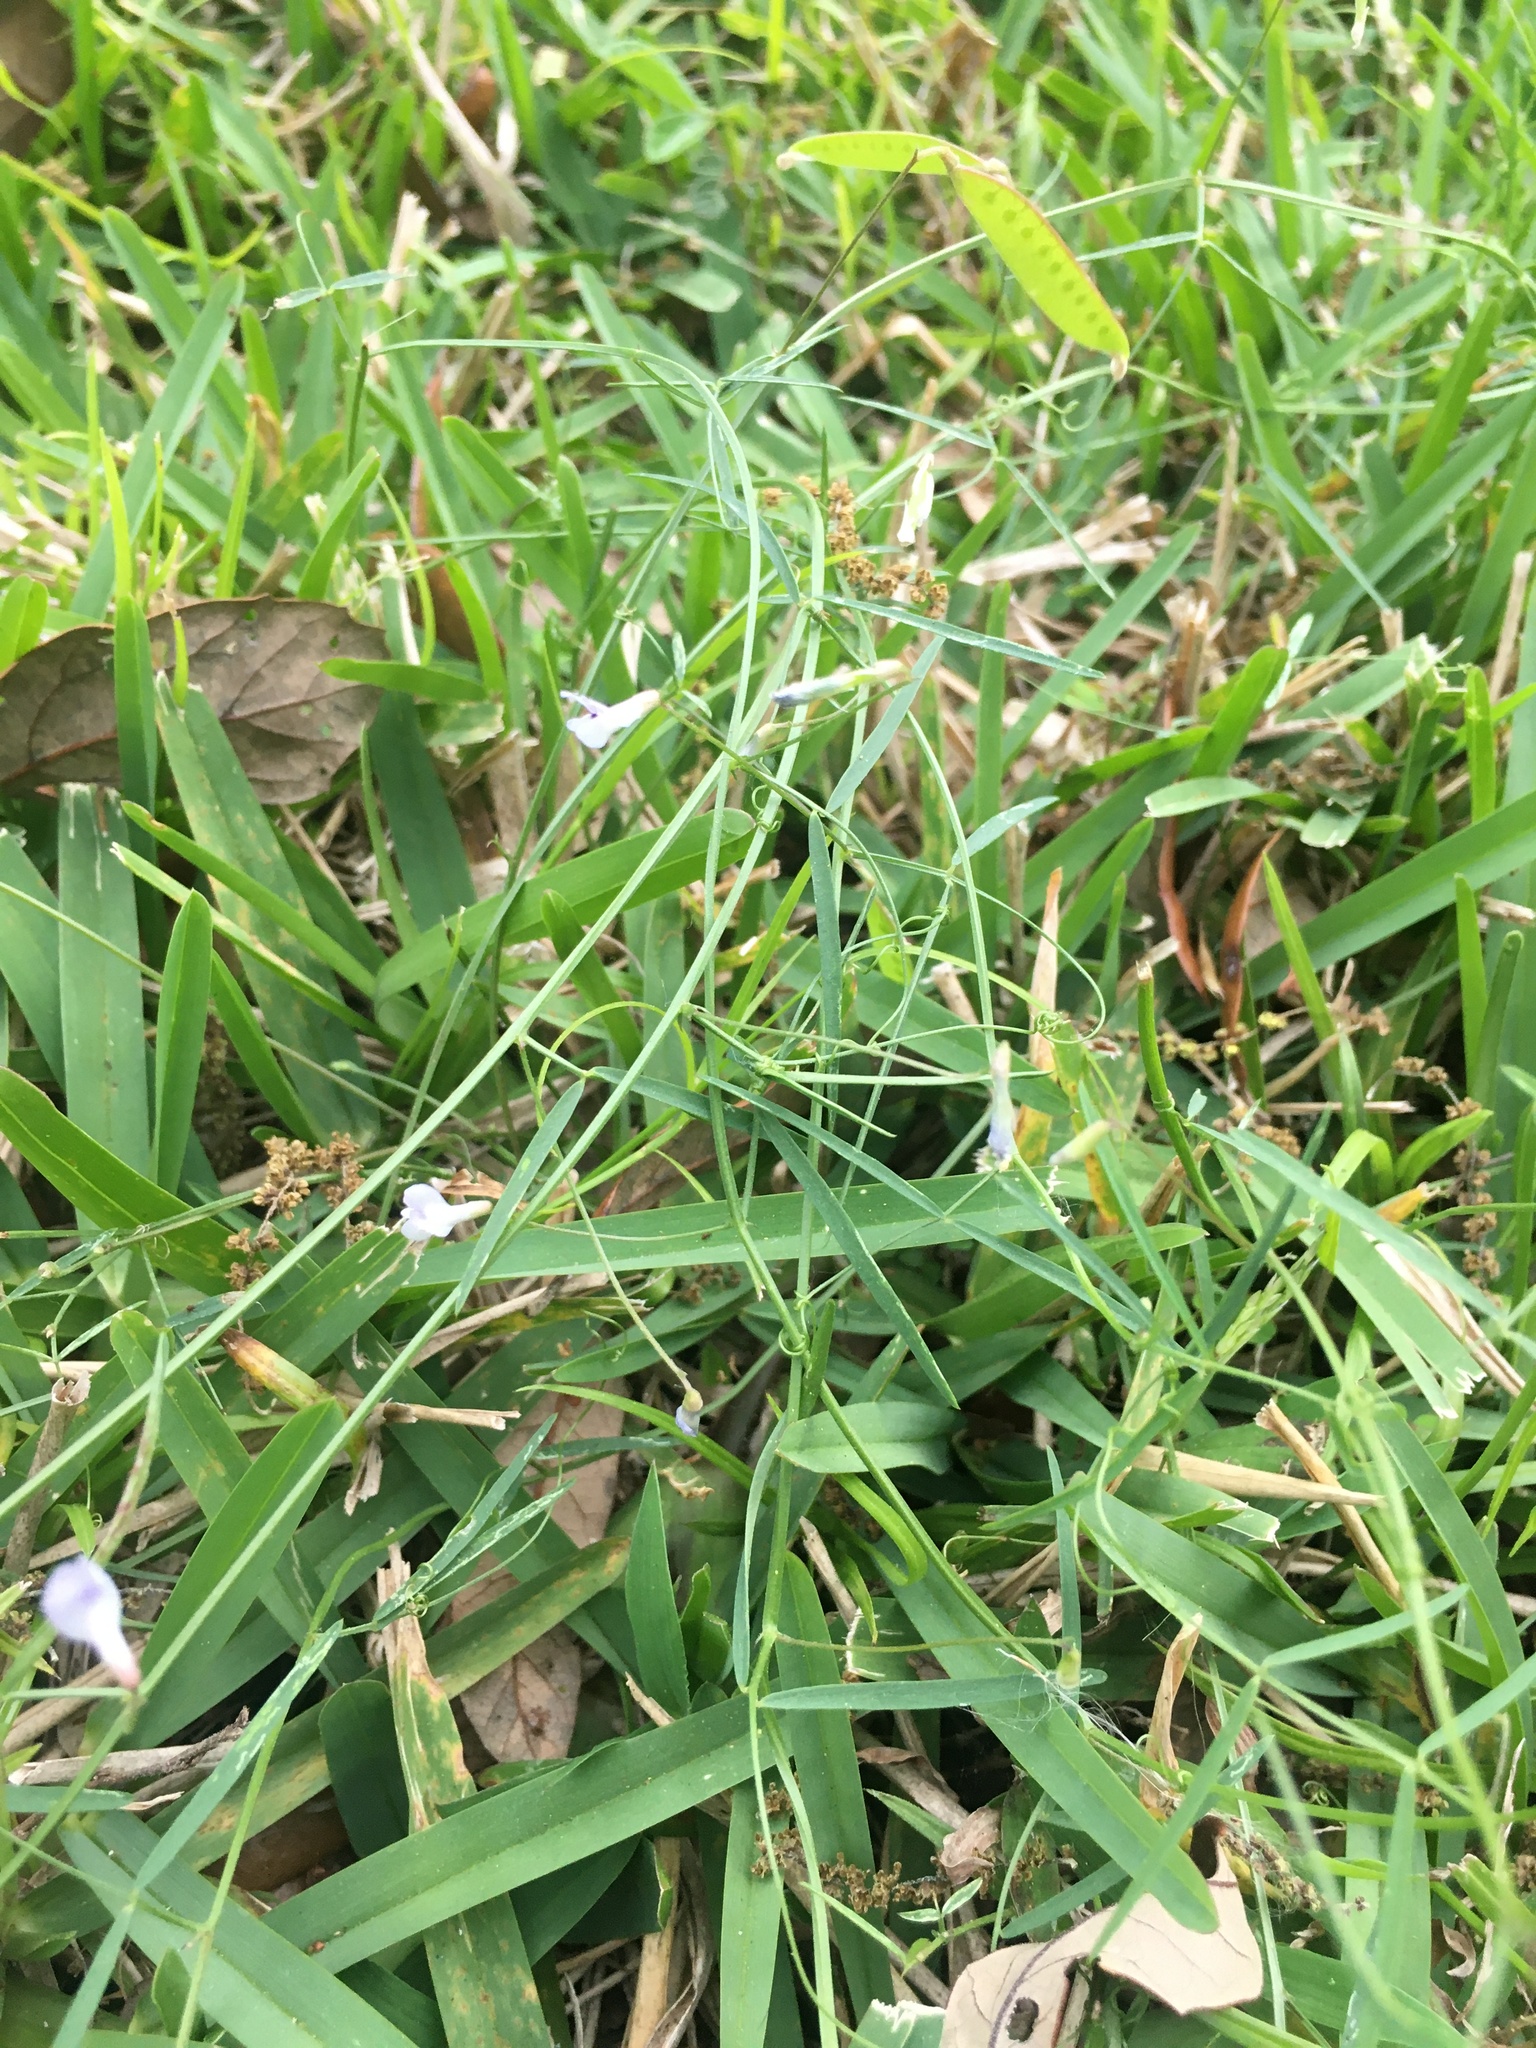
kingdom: Plantae
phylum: Tracheophyta
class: Magnoliopsida
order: Fabales
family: Fabaceae
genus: Vicia
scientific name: Vicia acutifolia
